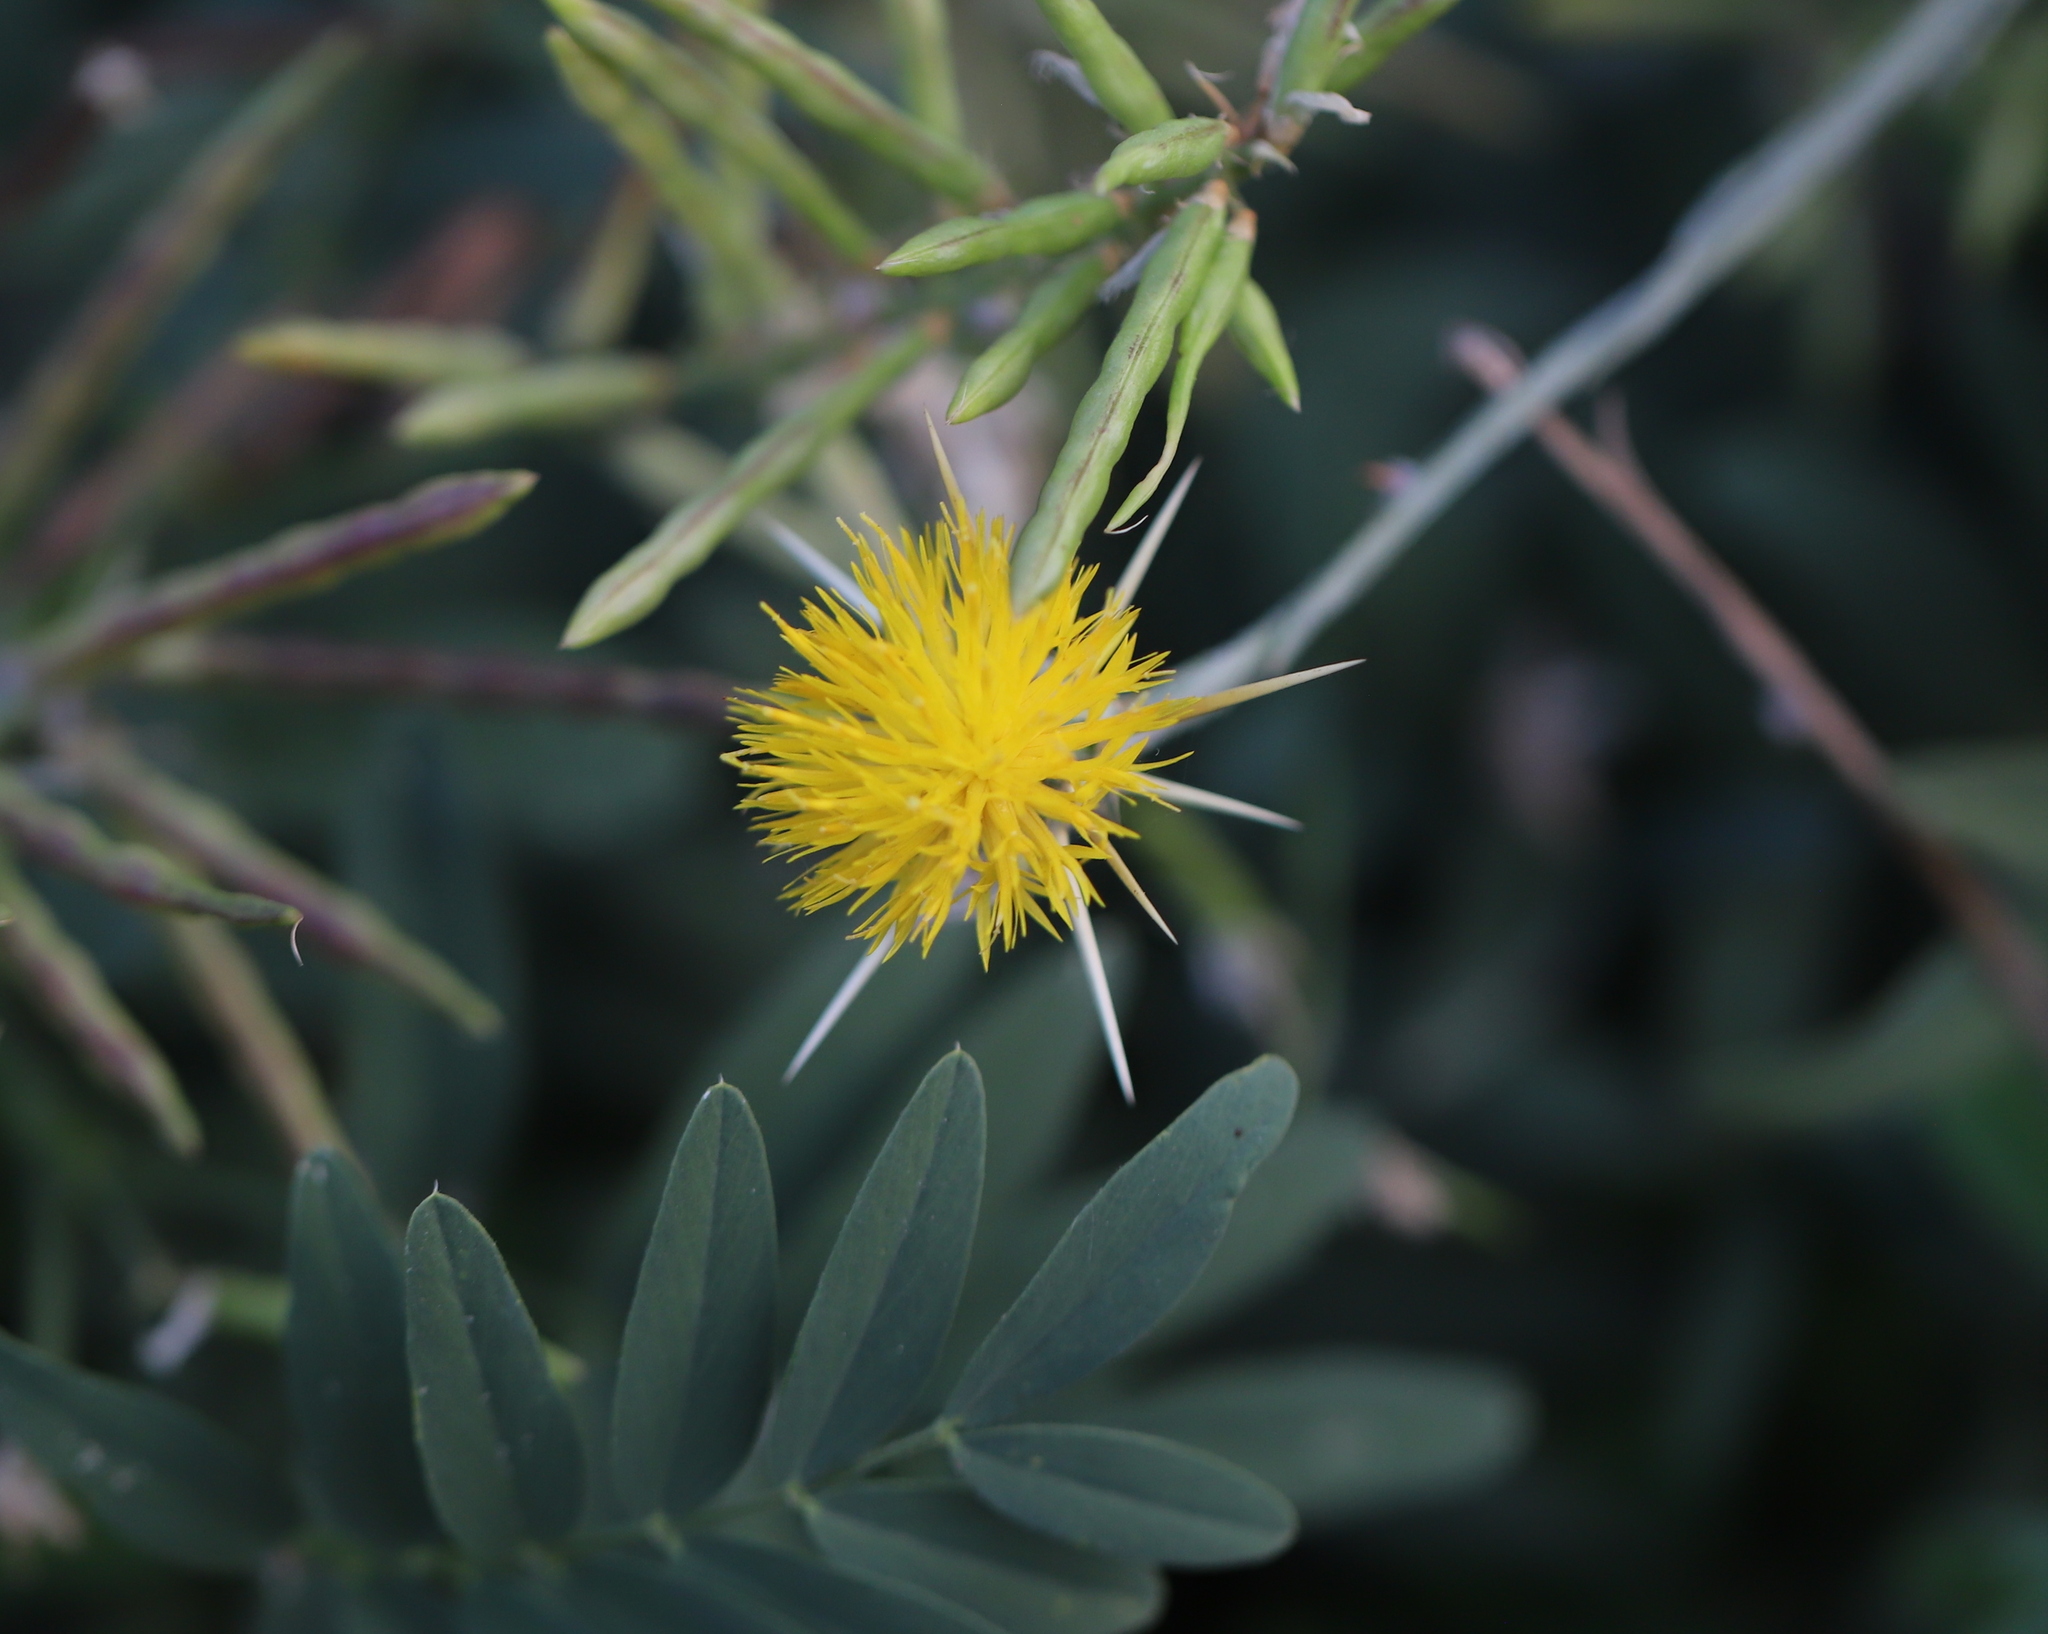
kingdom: Plantae
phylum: Tracheophyta
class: Magnoliopsida
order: Asterales
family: Asteraceae
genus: Centaurea
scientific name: Centaurea solstitialis
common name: Yellow star-thistle
